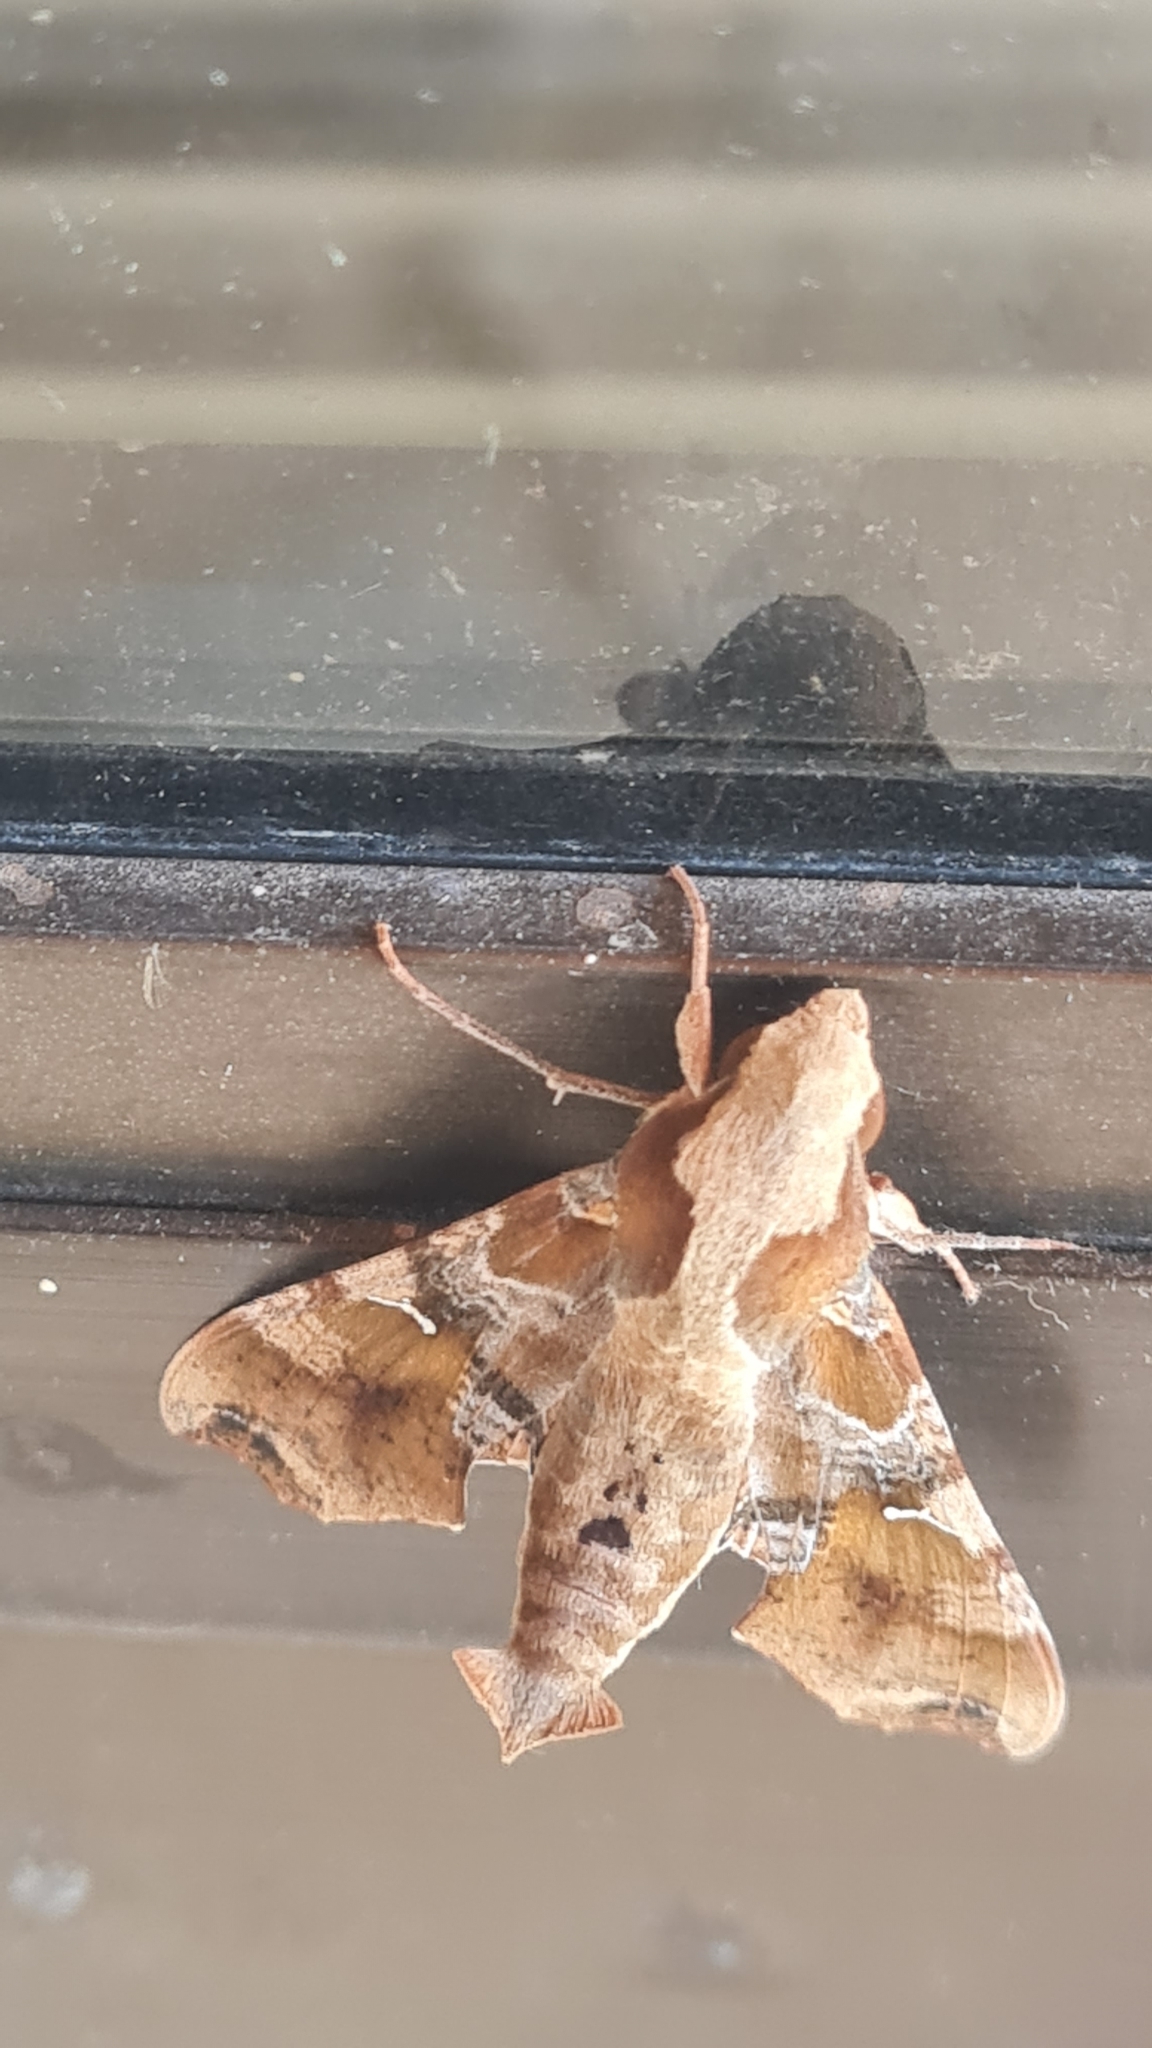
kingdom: Animalia
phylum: Arthropoda
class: Insecta
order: Lepidoptera
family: Sphingidae
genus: Callionima
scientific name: Callionima grisescens
